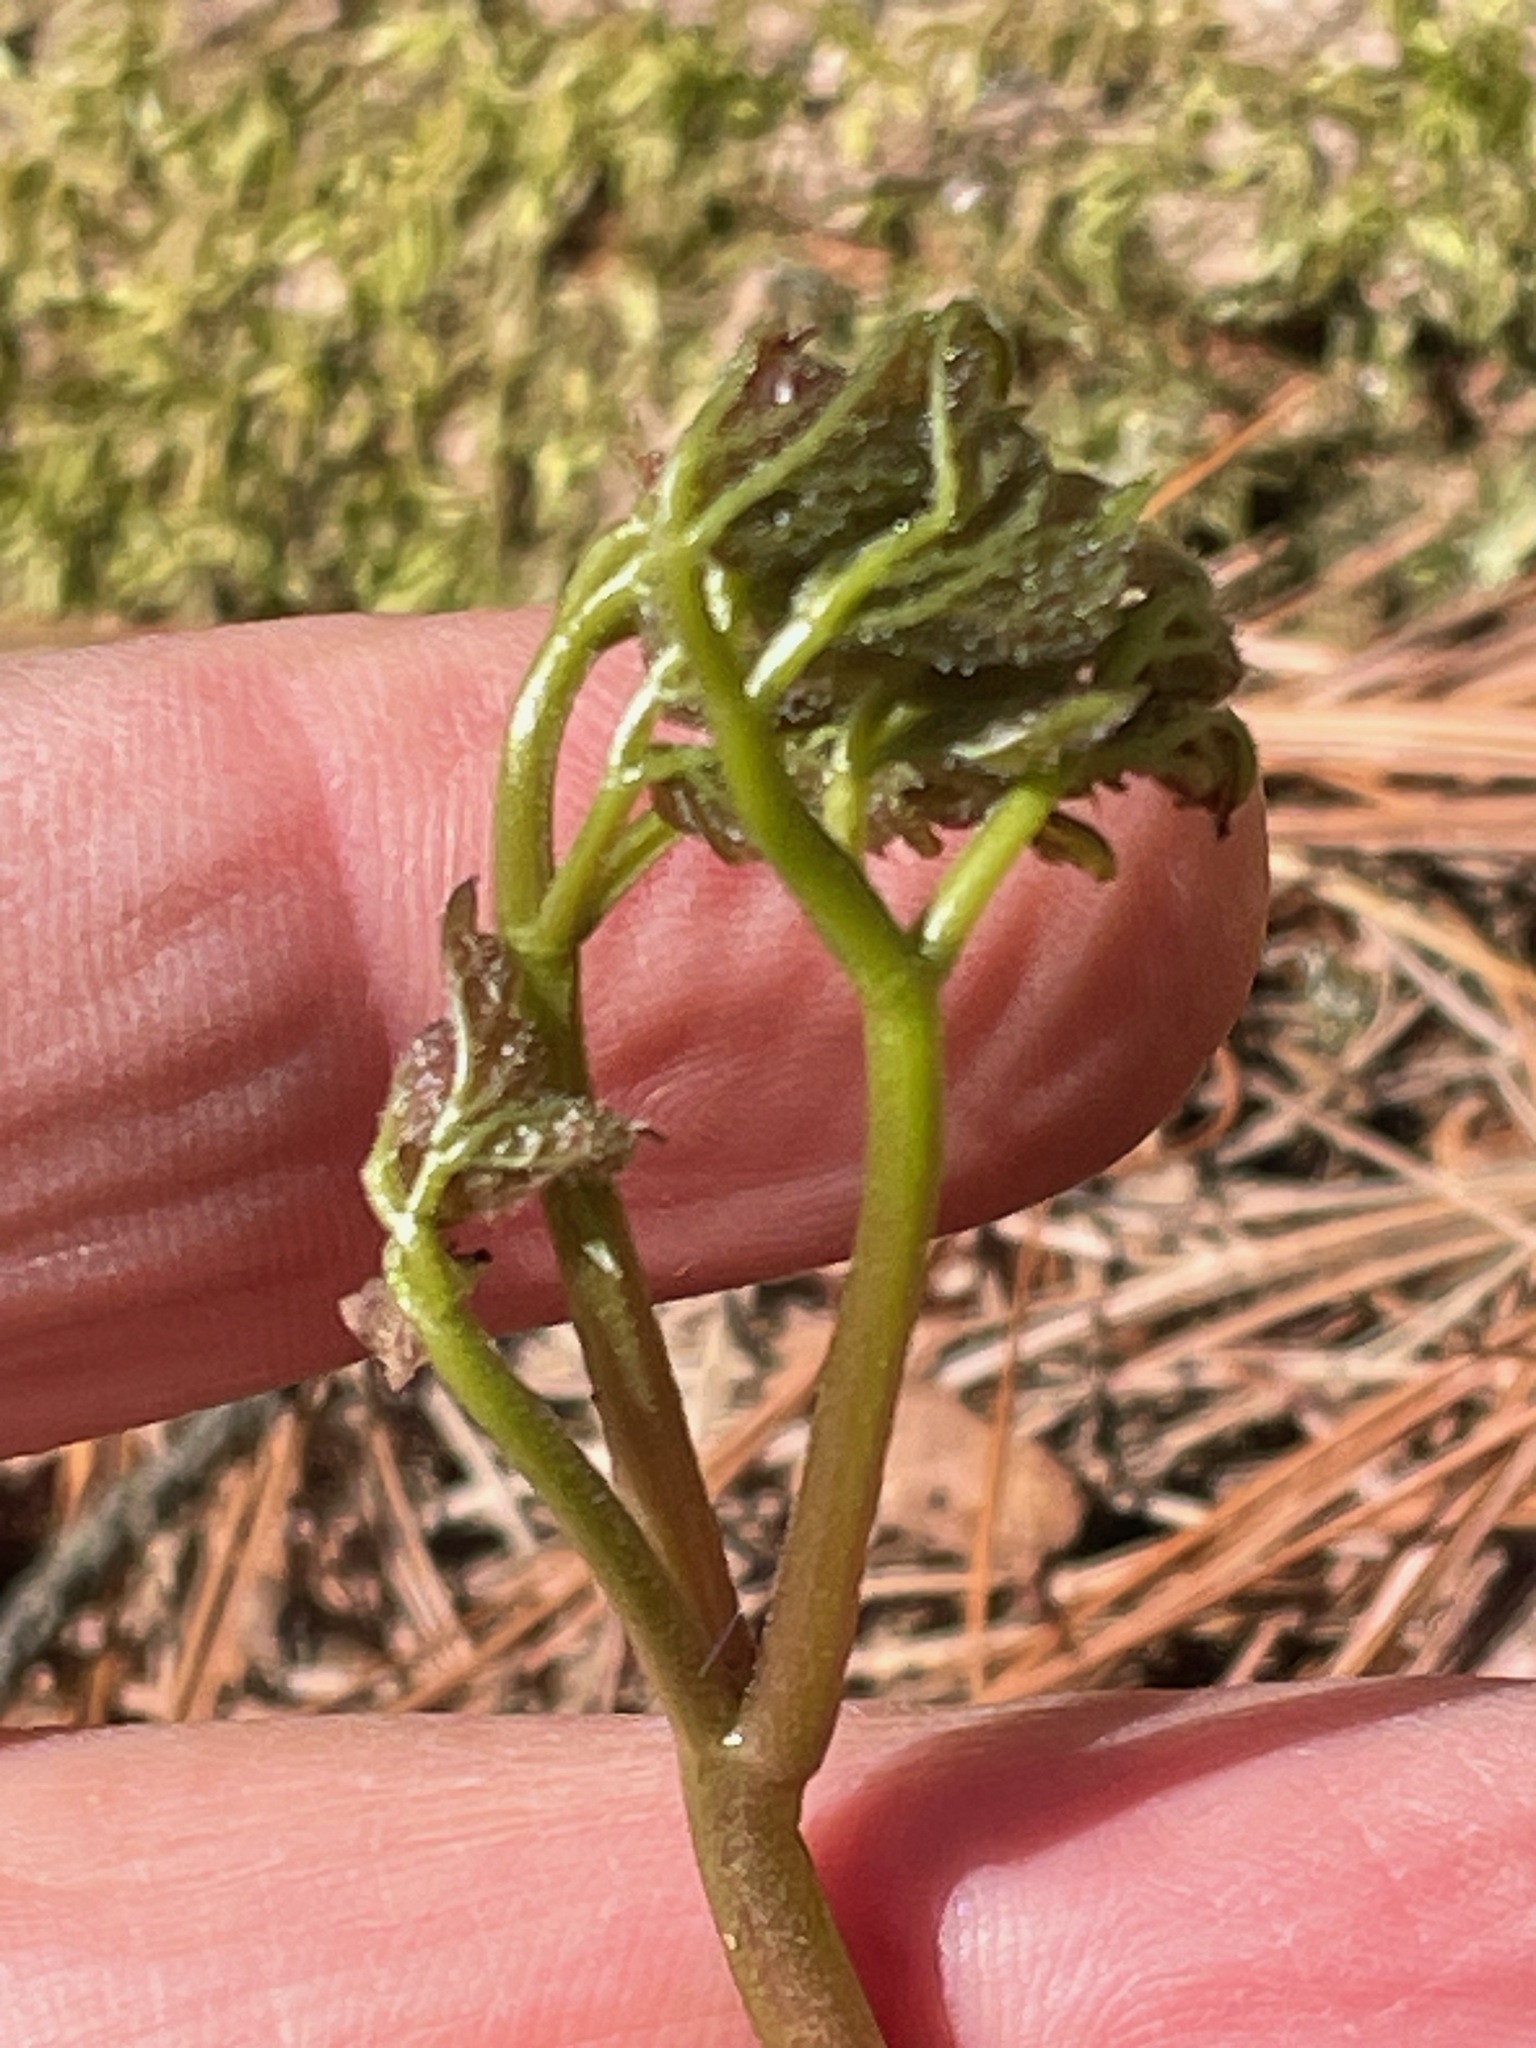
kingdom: Plantae
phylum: Tracheophyta
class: Magnoliopsida
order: Apiales
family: Araliaceae
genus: Aralia
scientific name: Aralia nudicaulis
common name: Wild sarsaparilla
